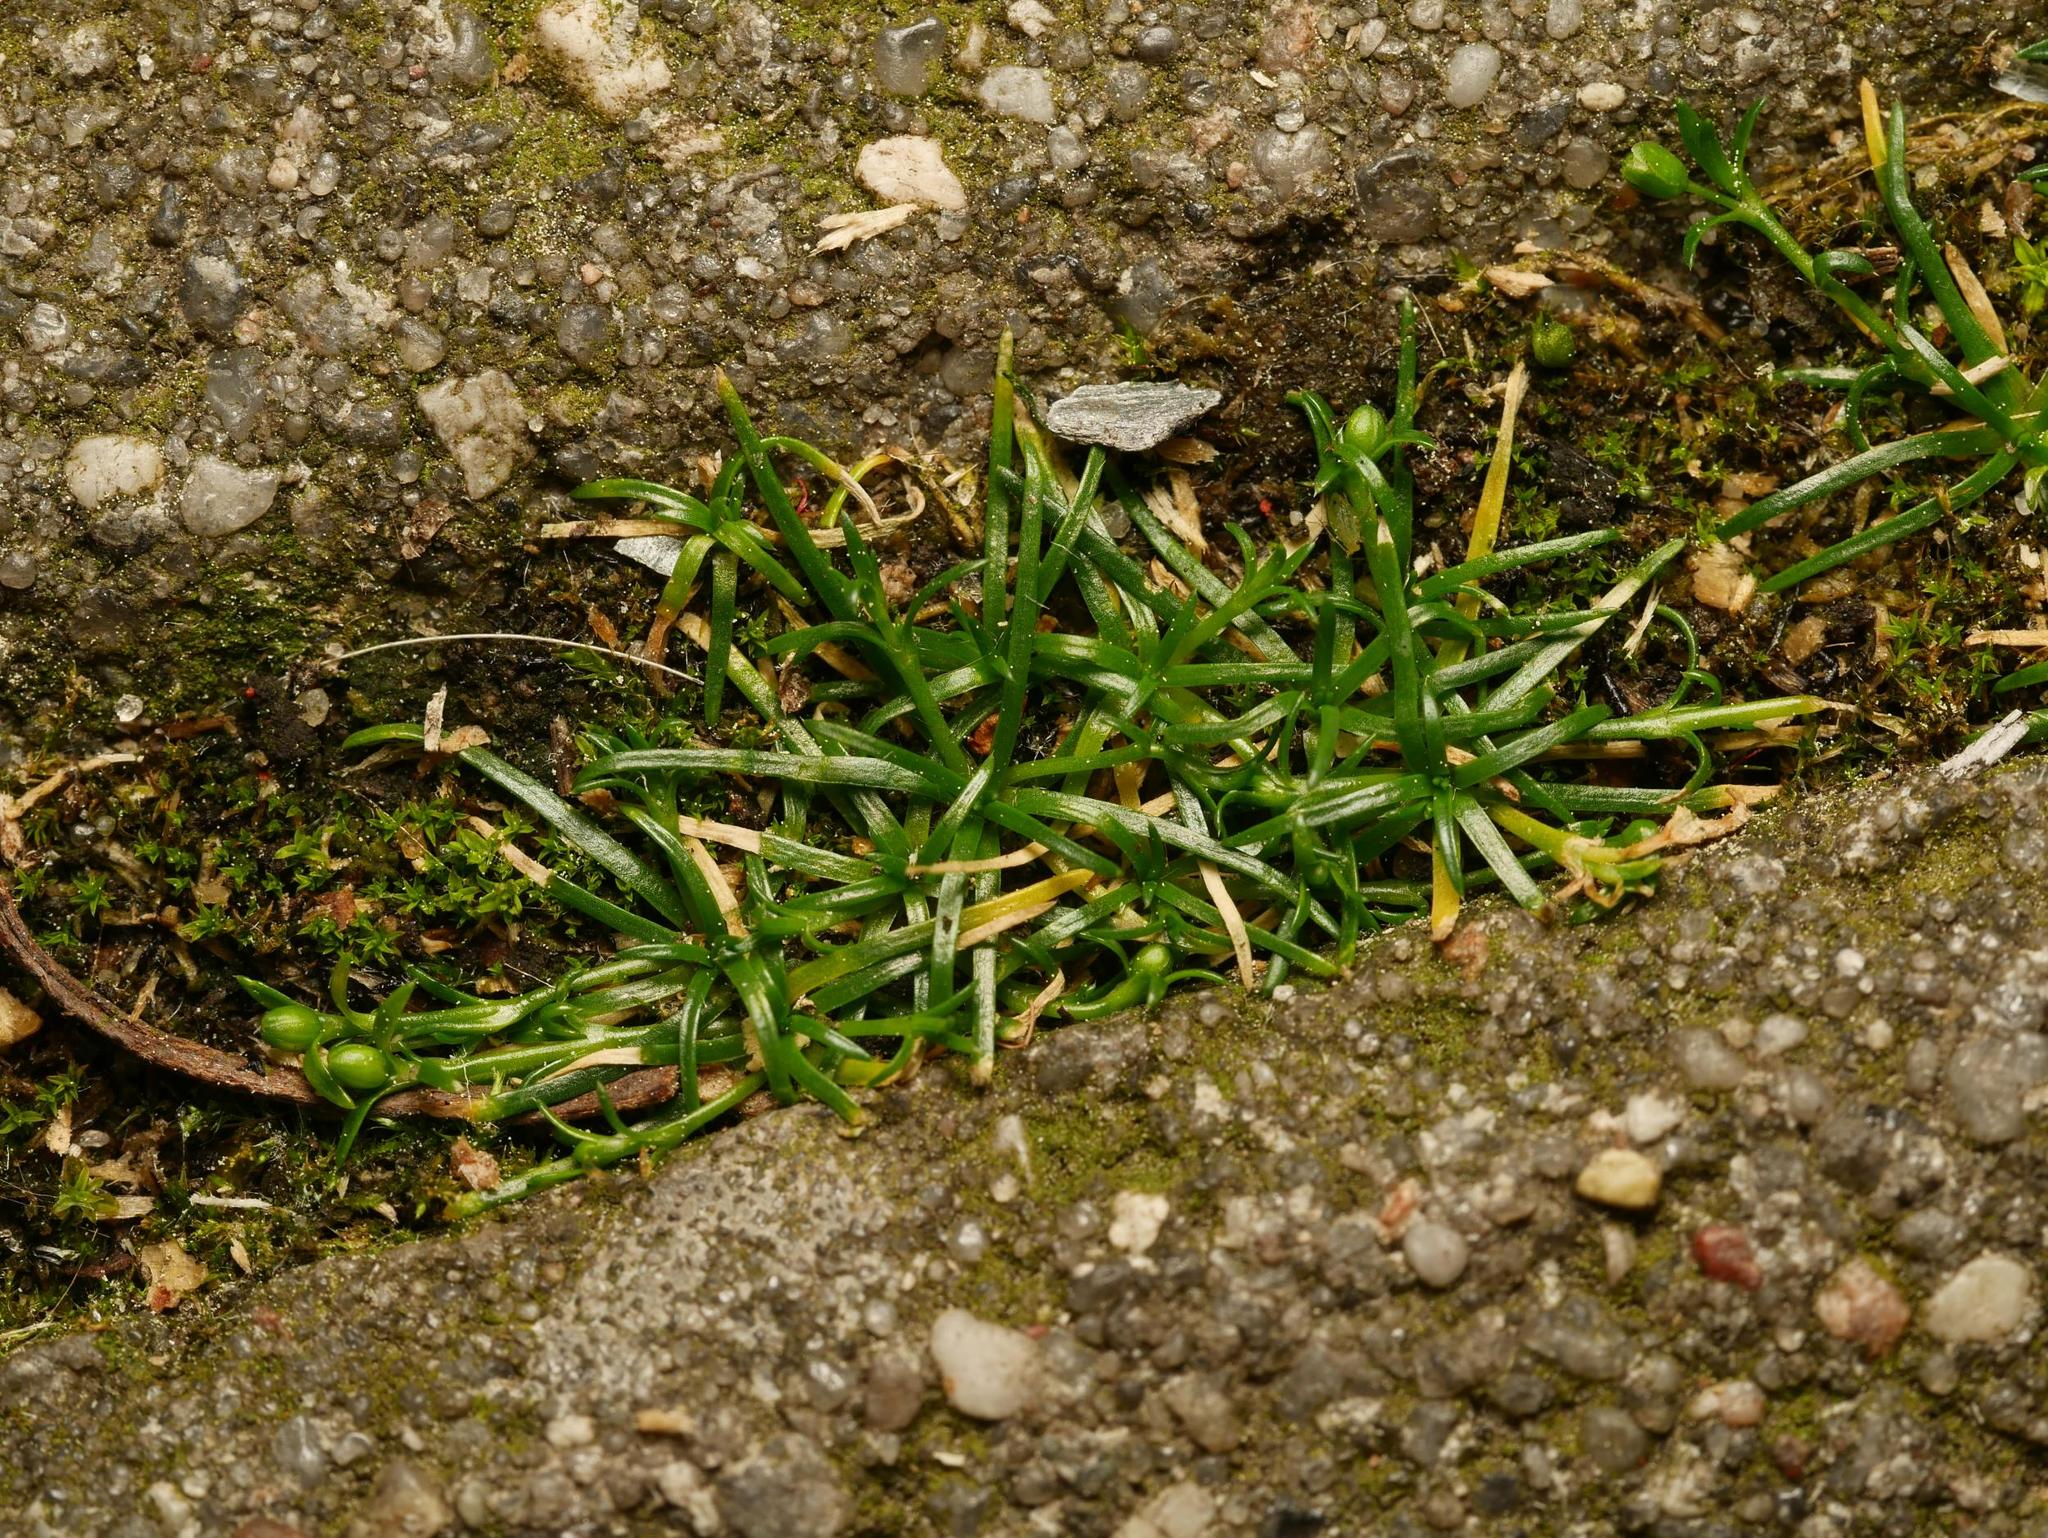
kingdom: Plantae
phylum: Tracheophyta
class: Magnoliopsida
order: Caryophyllales
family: Caryophyllaceae
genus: Sagina
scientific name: Sagina procumbens
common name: Procumbent pearlwort
